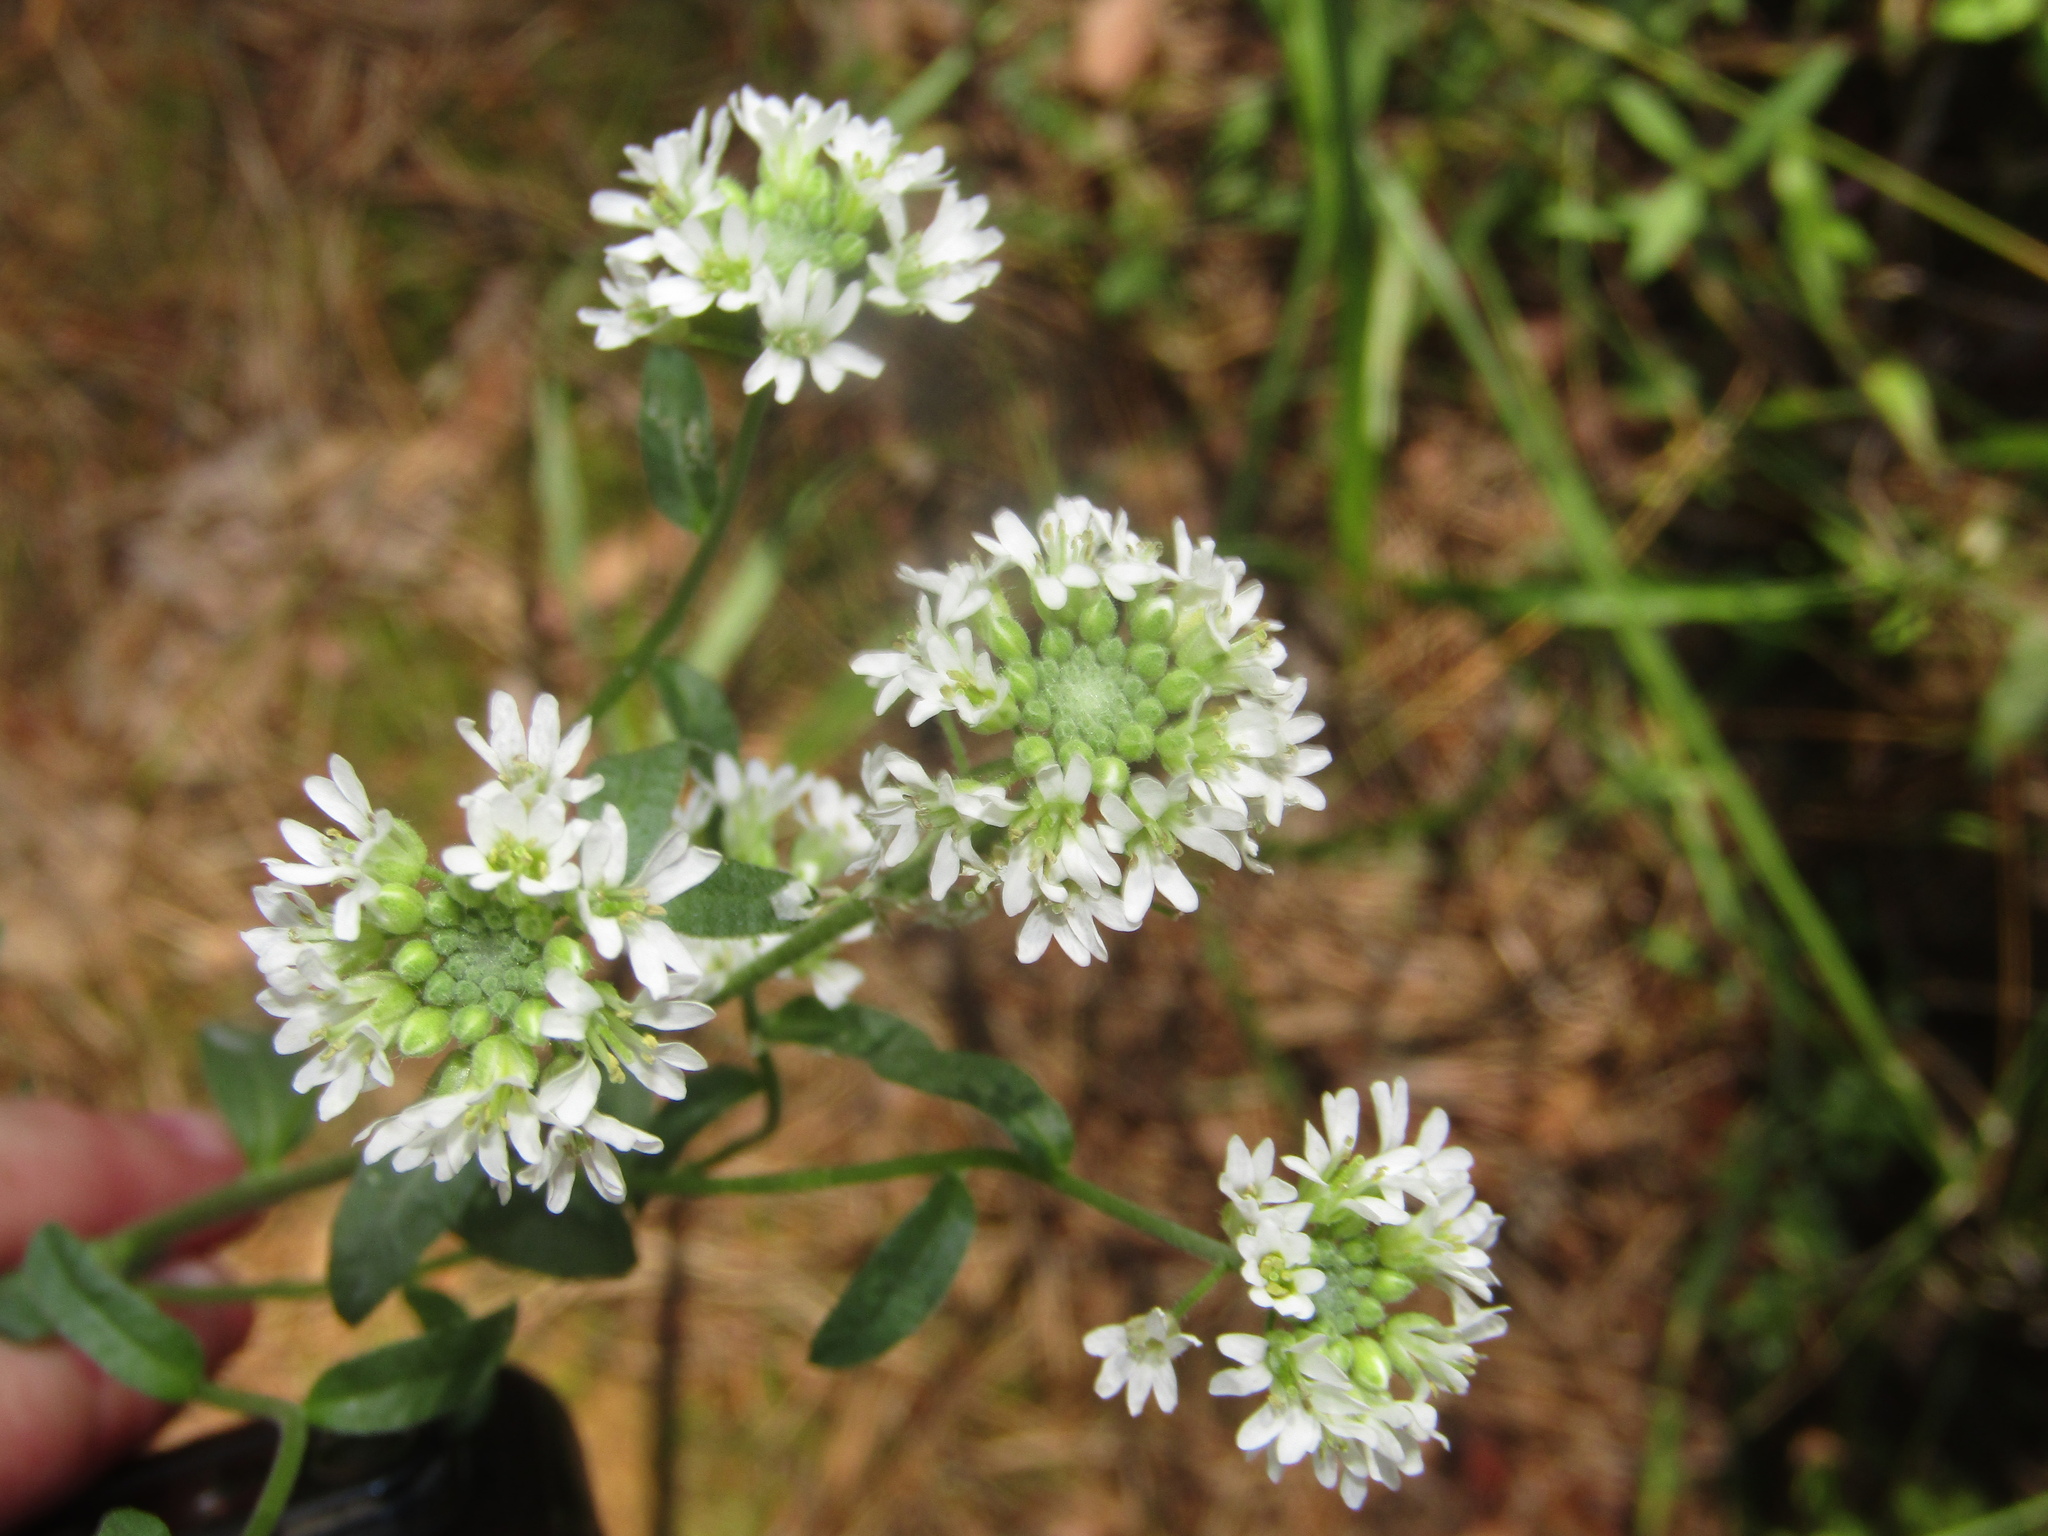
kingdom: Plantae
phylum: Tracheophyta
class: Magnoliopsida
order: Brassicales
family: Brassicaceae
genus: Berteroa
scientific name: Berteroa incana
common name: Hoary alison
